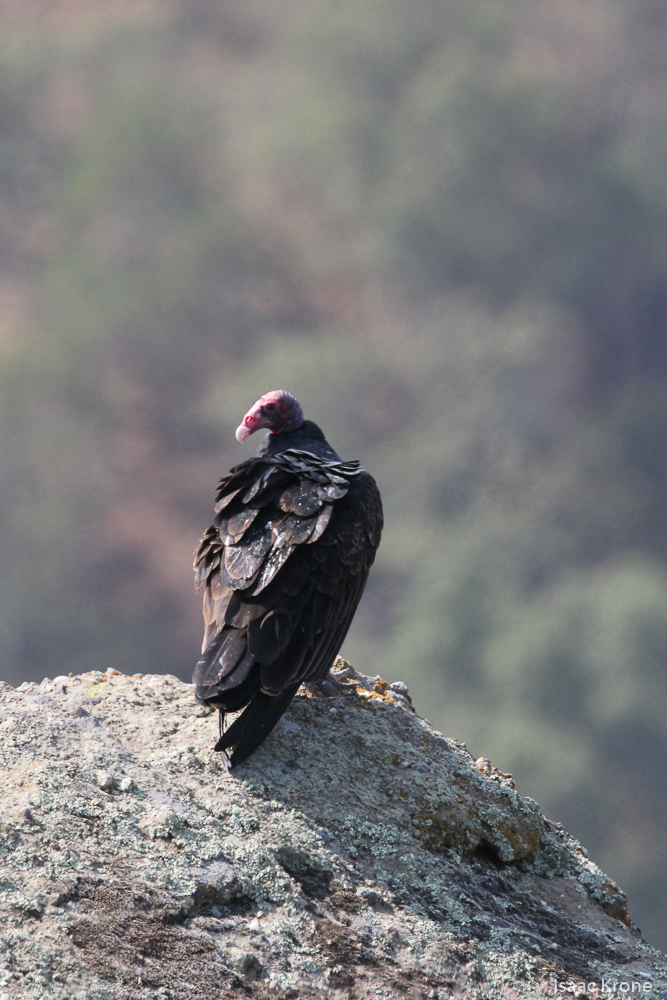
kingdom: Animalia
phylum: Chordata
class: Aves
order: Accipitriformes
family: Cathartidae
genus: Cathartes
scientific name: Cathartes aura
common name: Turkey vulture
